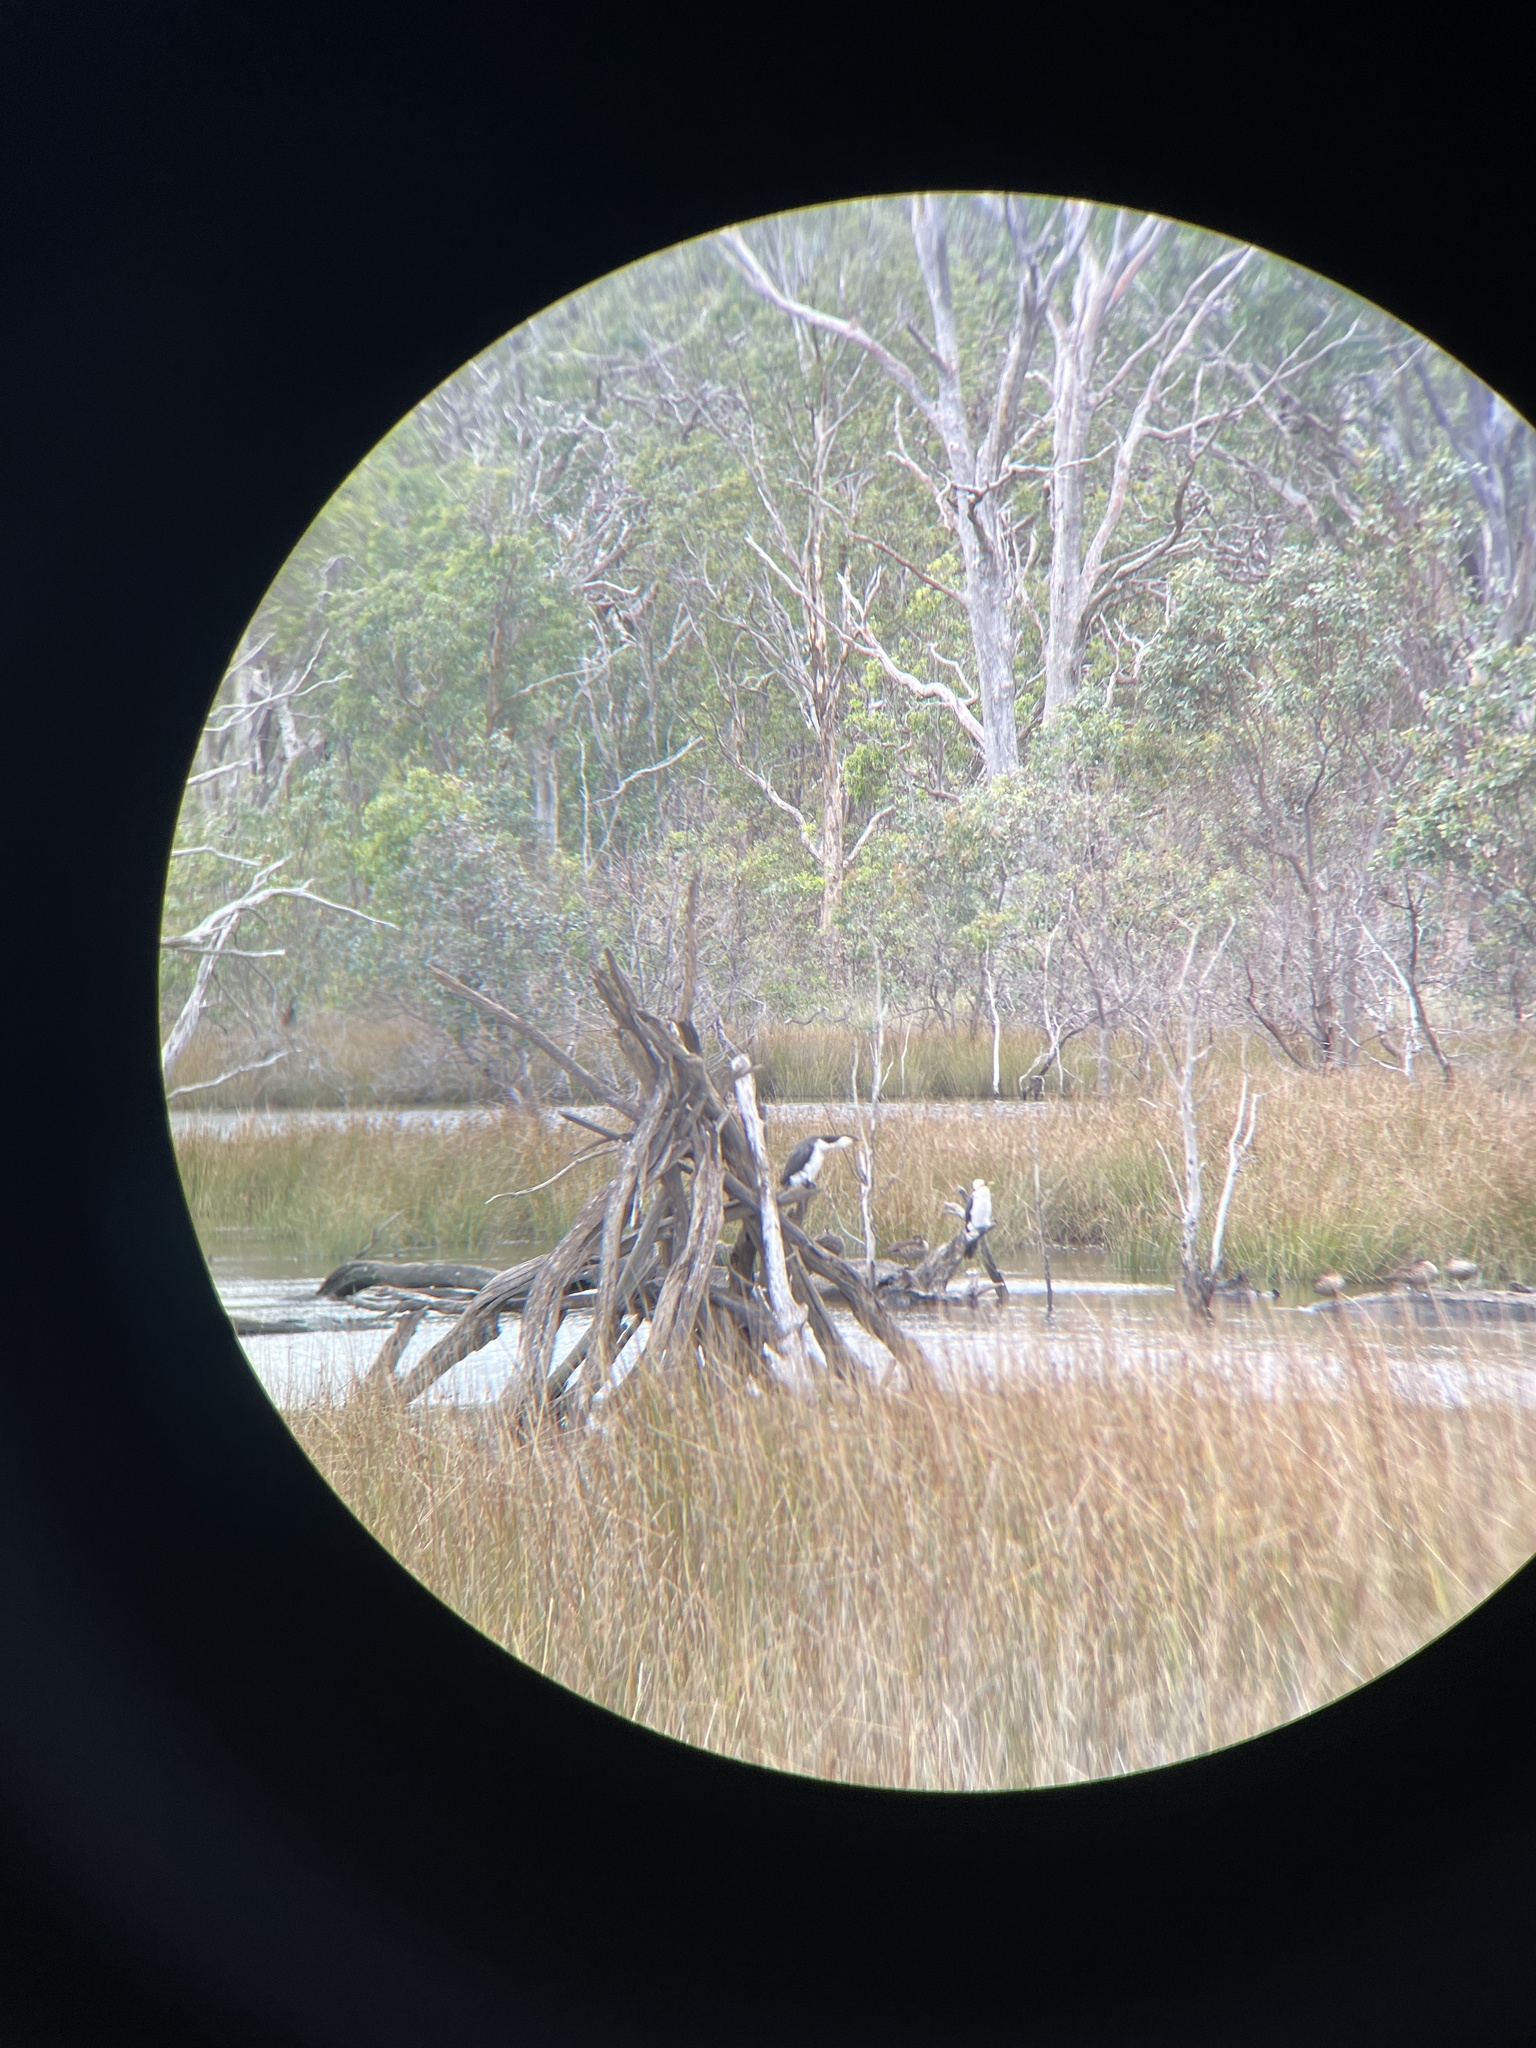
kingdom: Animalia
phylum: Chordata
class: Aves
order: Suliformes
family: Phalacrocoracidae
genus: Microcarbo
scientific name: Microcarbo melanoleucos
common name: Little pied cormorant
